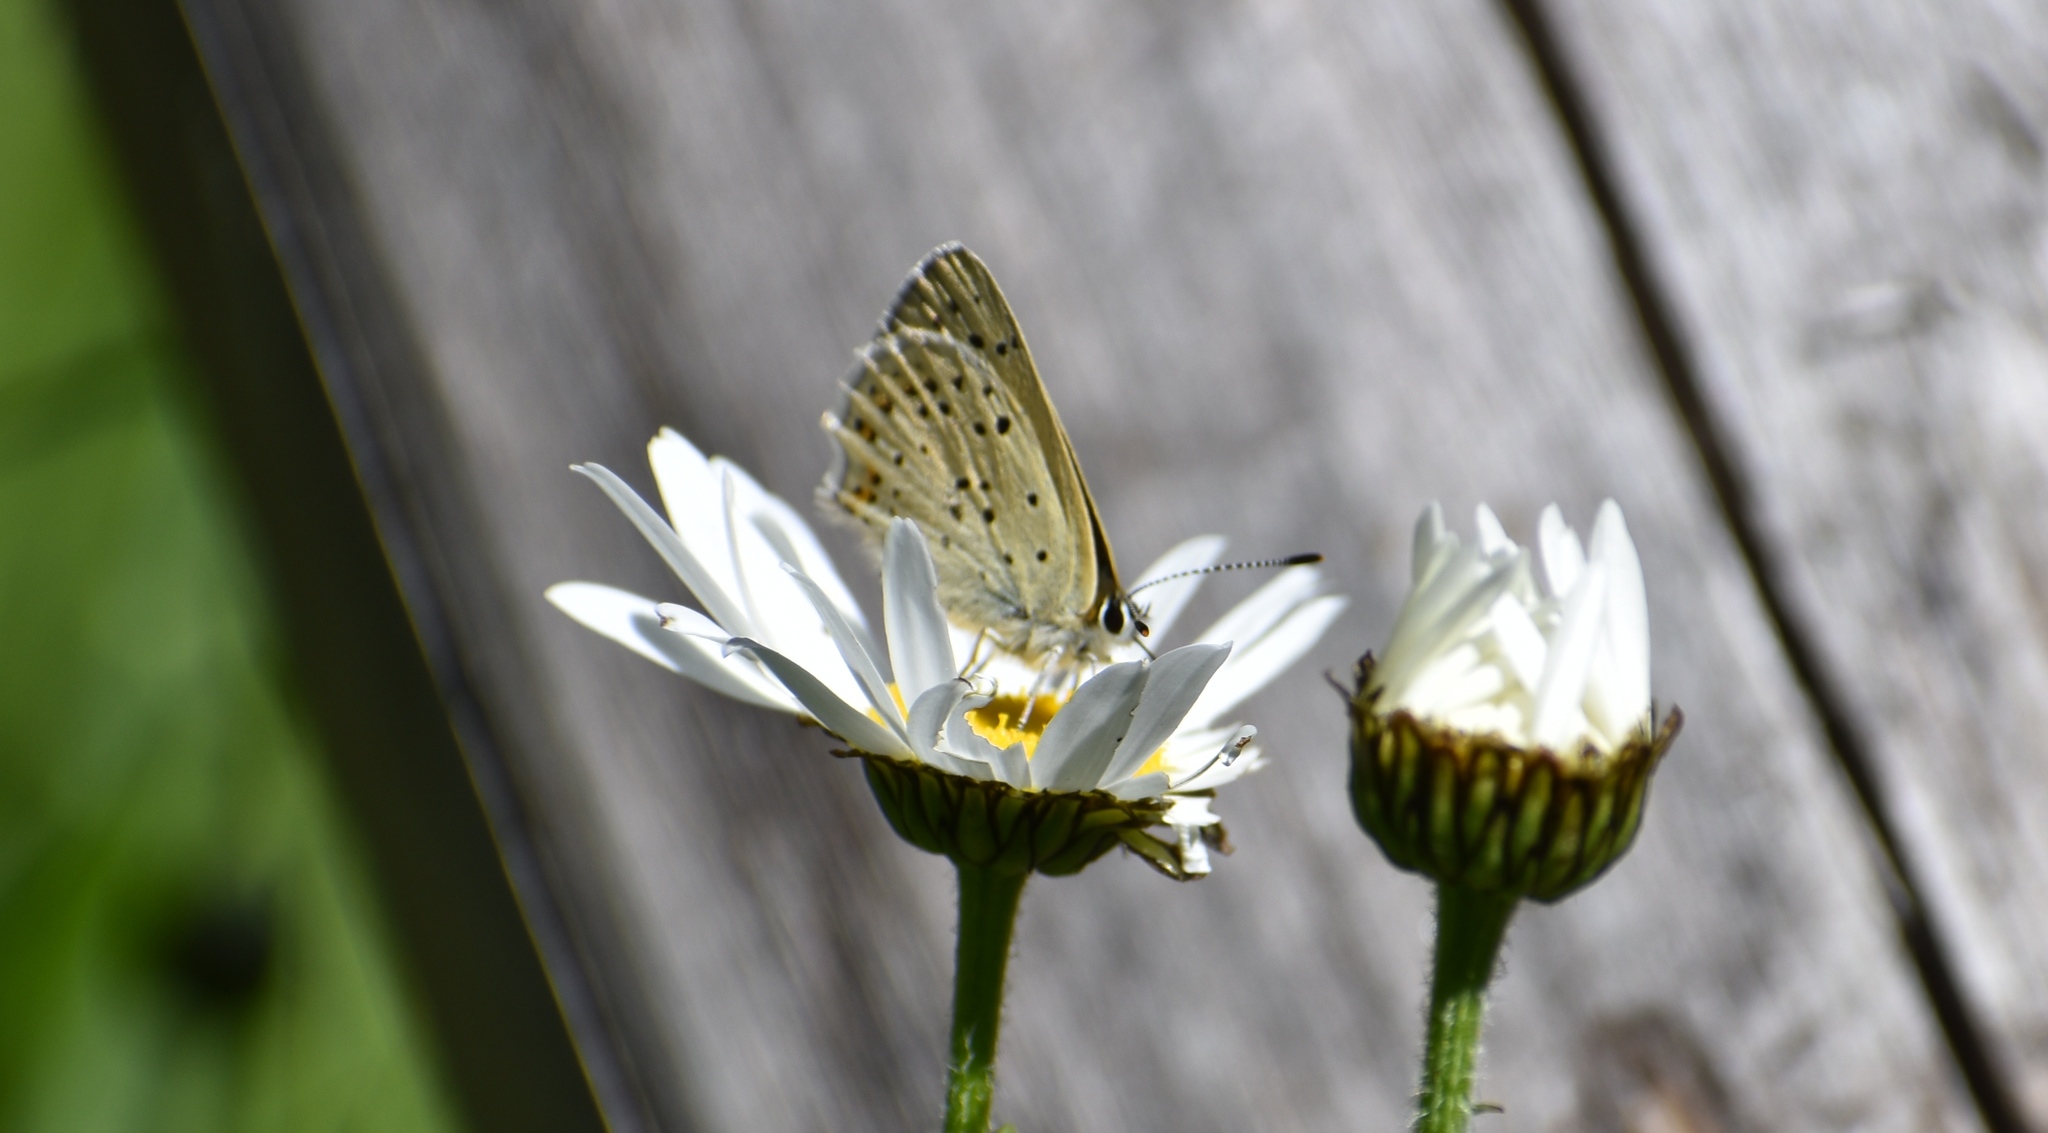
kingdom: Animalia
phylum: Arthropoda
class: Insecta
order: Lepidoptera
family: Lycaenidae
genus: Loweia
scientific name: Loweia tityrus
